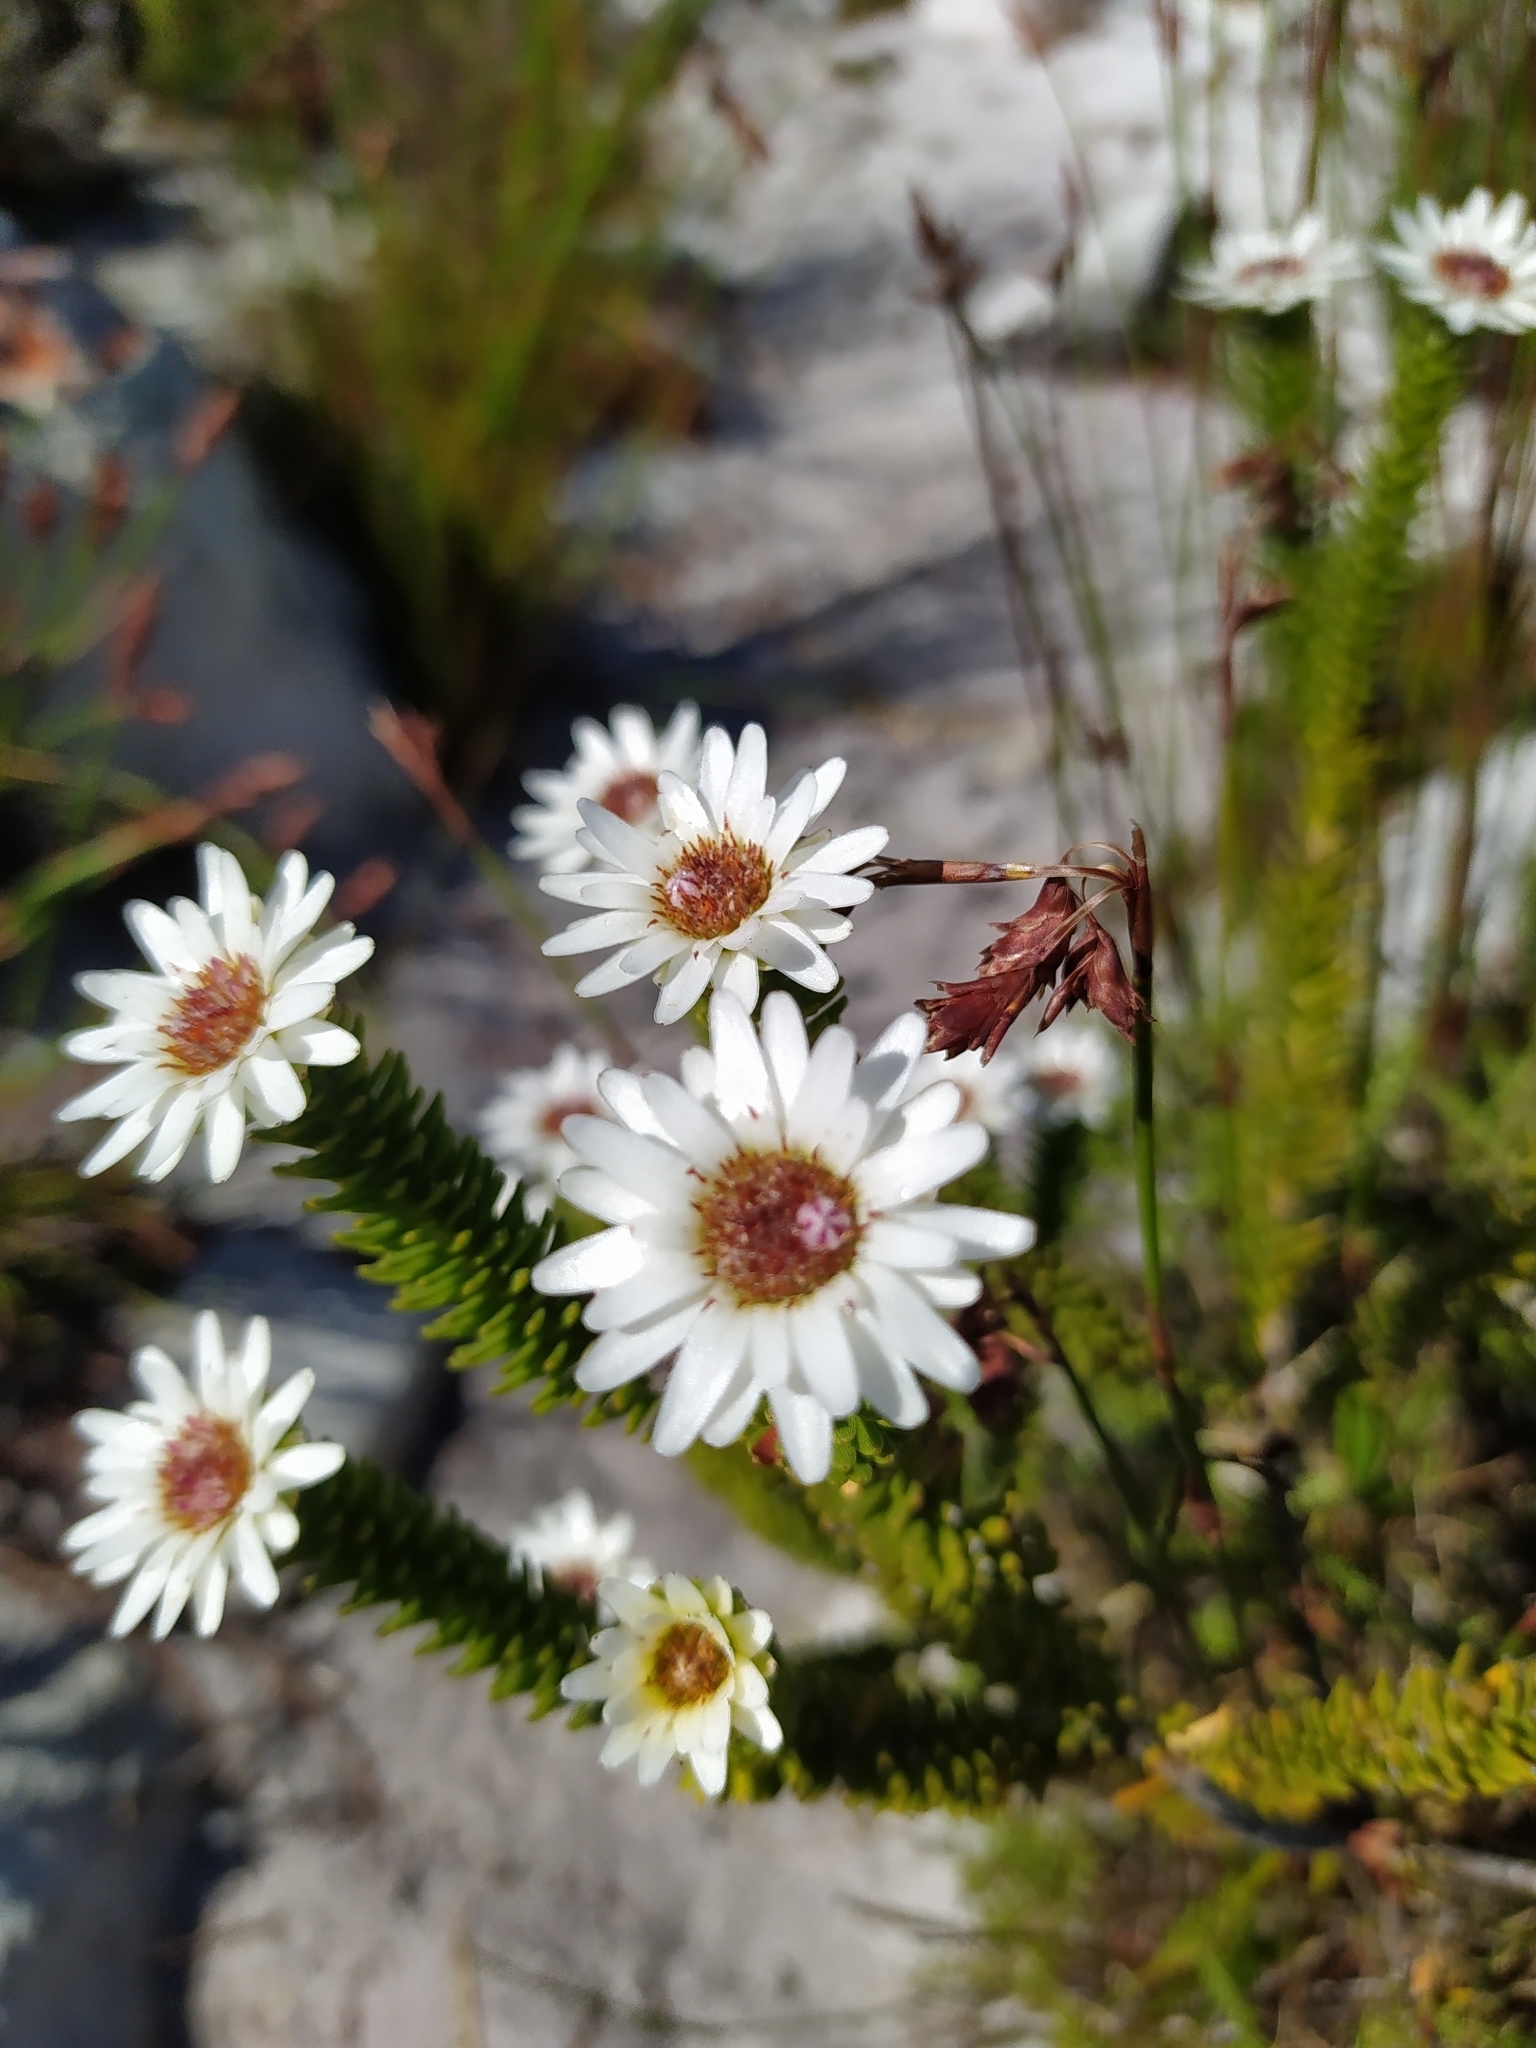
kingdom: Plantae
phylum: Tracheophyta
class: Magnoliopsida
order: Bruniales
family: Bruniaceae
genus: Staavia
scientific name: Staavia dodii
